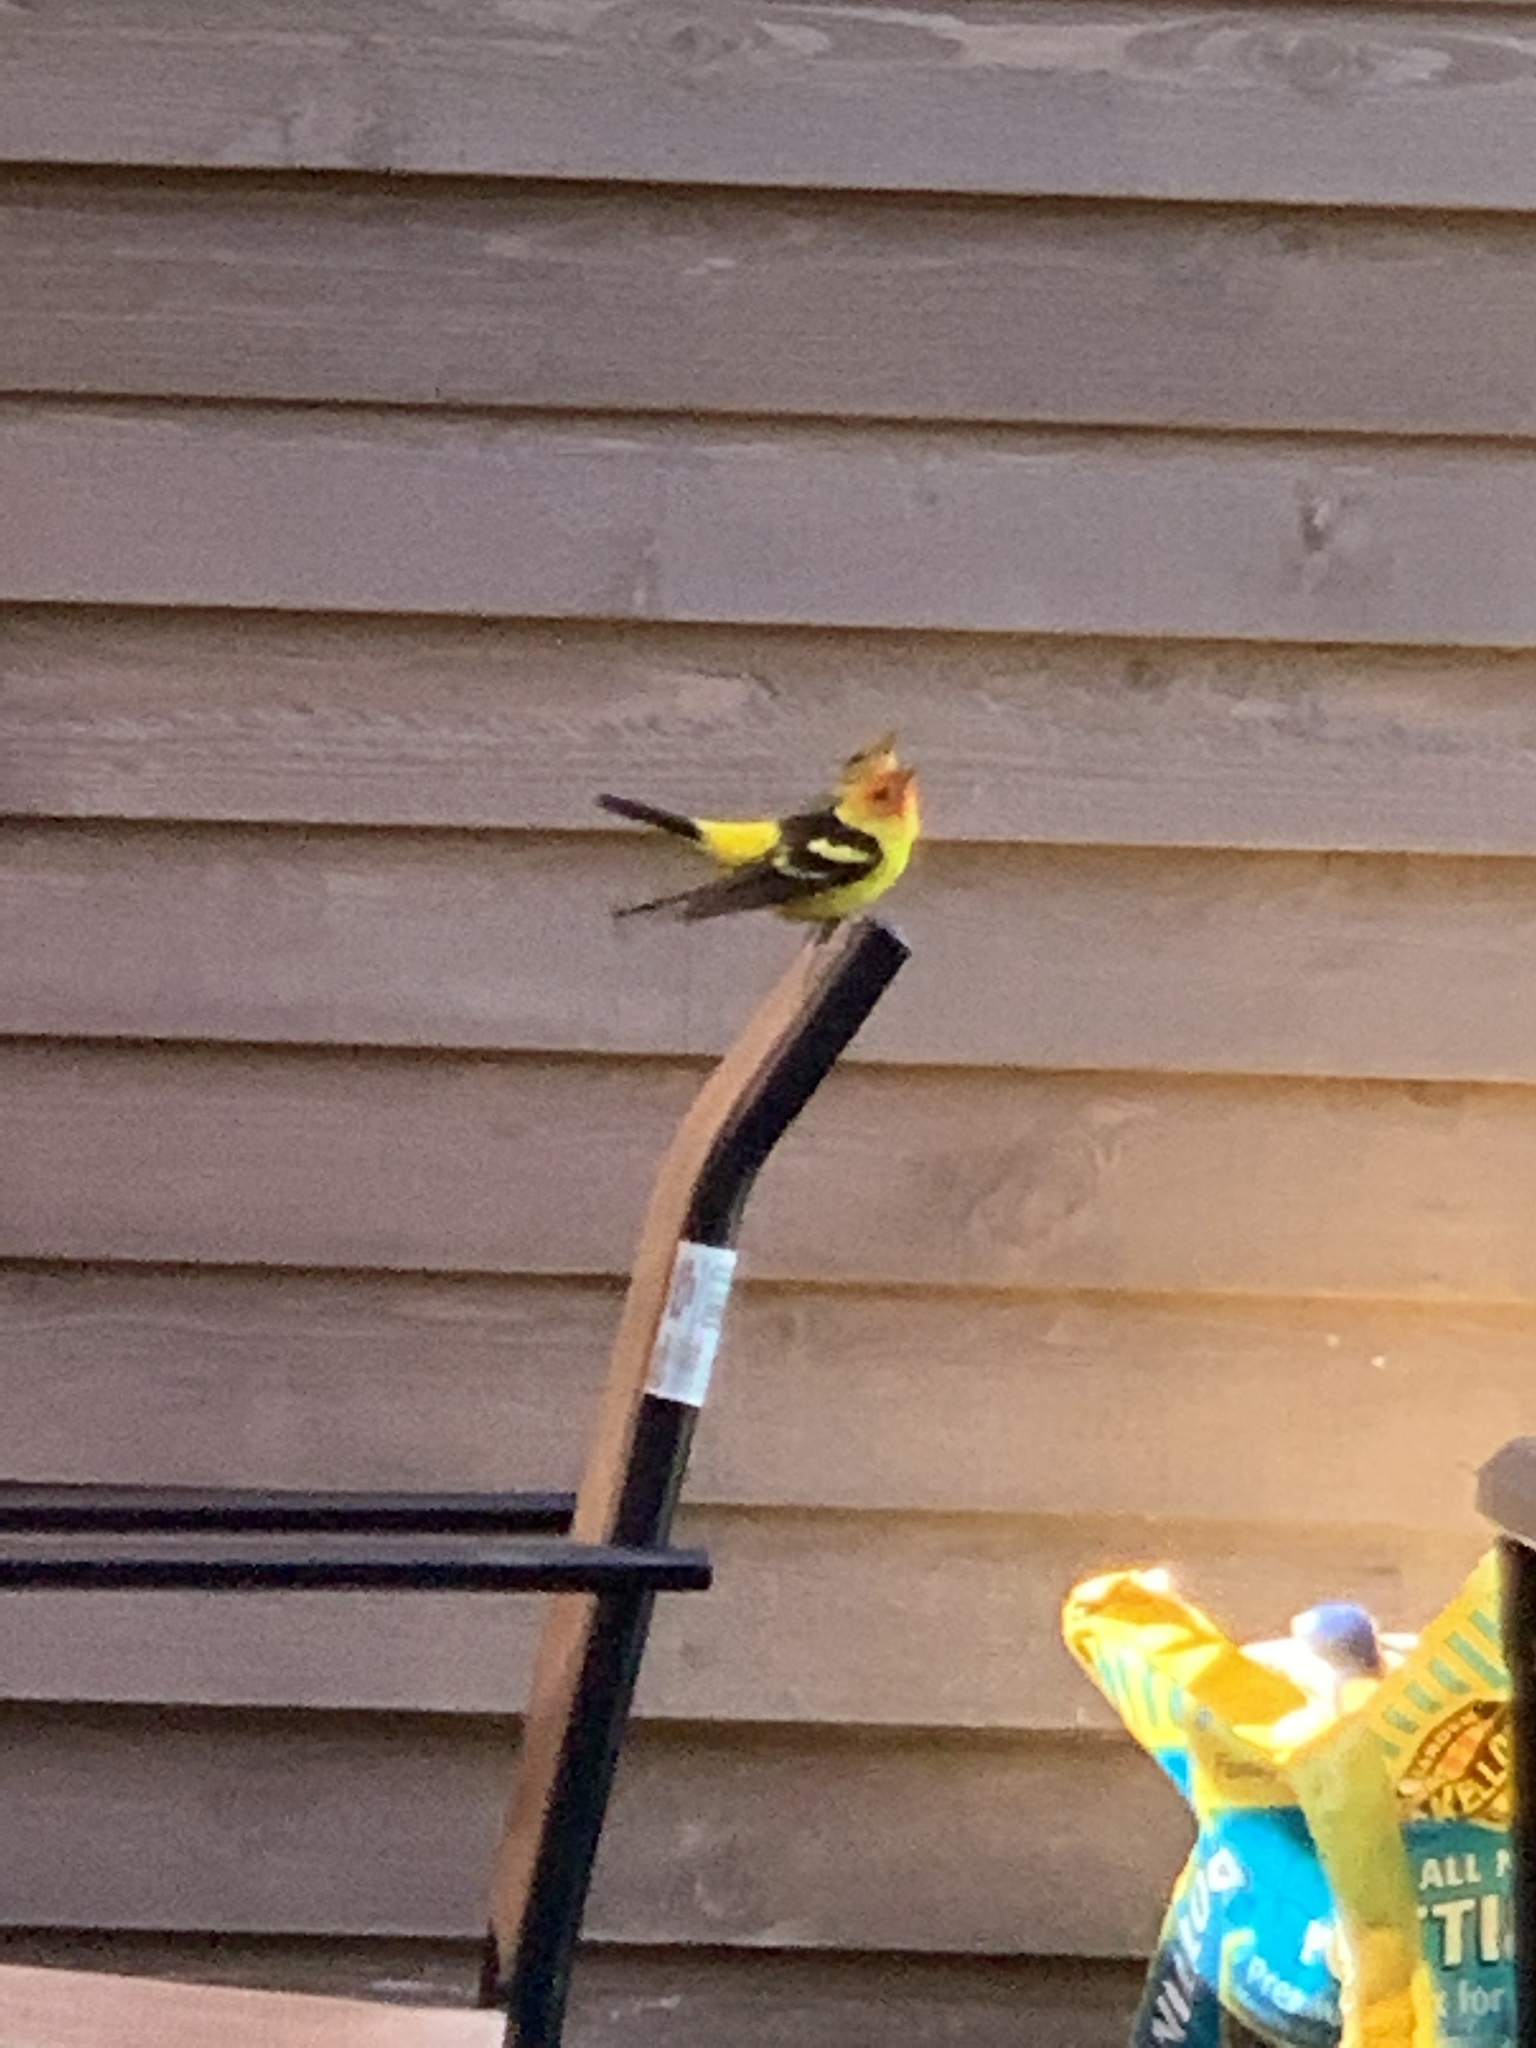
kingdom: Animalia
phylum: Chordata
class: Aves
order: Passeriformes
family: Cardinalidae
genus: Piranga
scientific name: Piranga ludoviciana
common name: Western tanager
